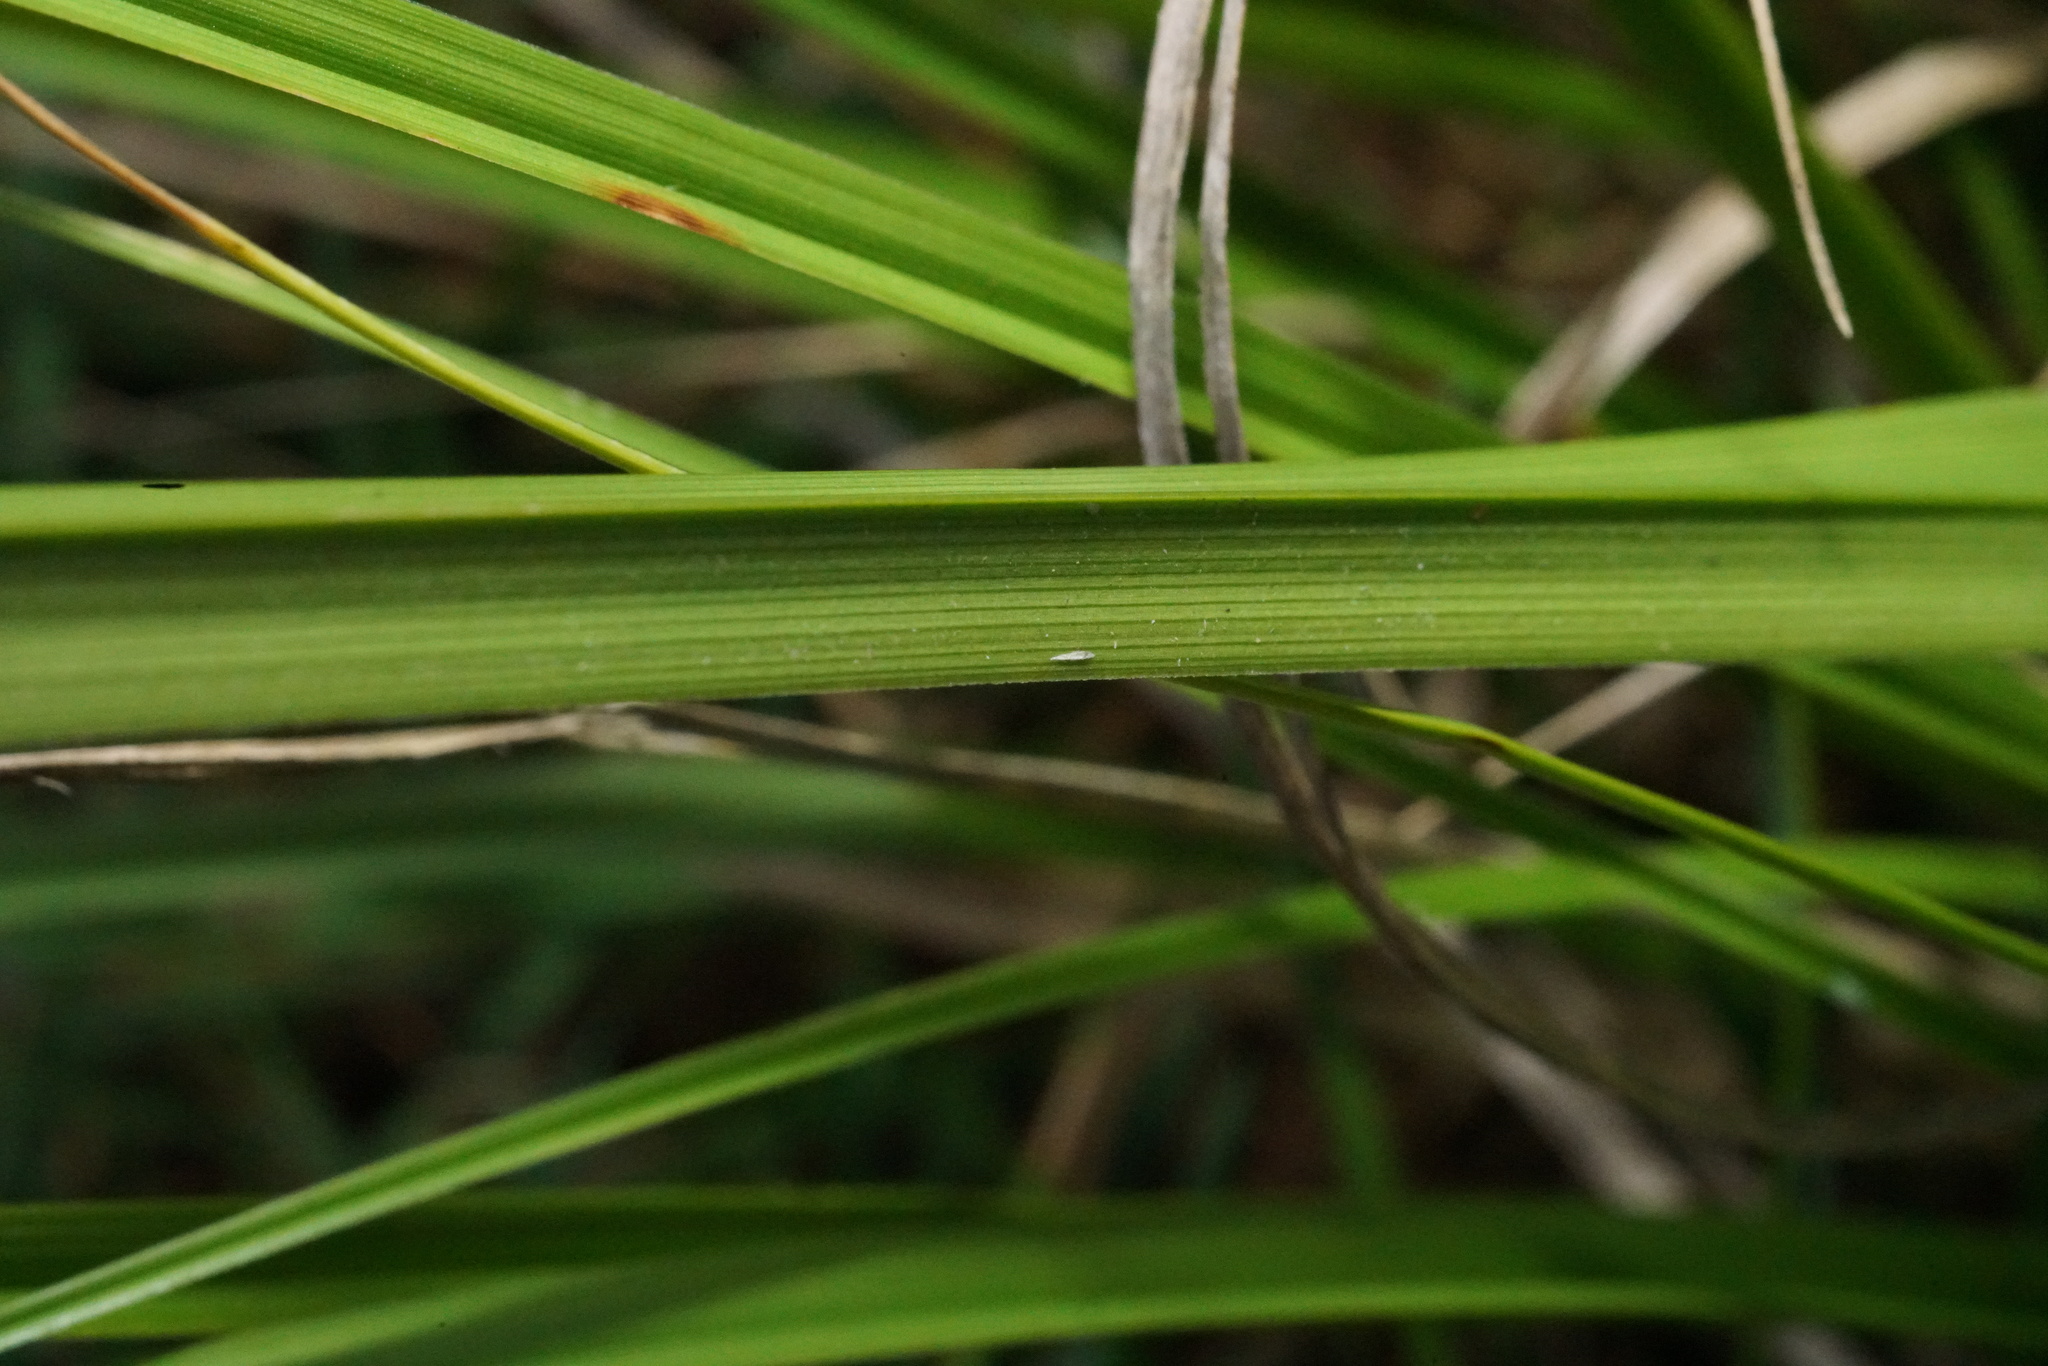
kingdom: Plantae
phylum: Tracheophyta
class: Liliopsida
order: Poales
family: Cyperaceae
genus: Carex
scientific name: Carex iynx
